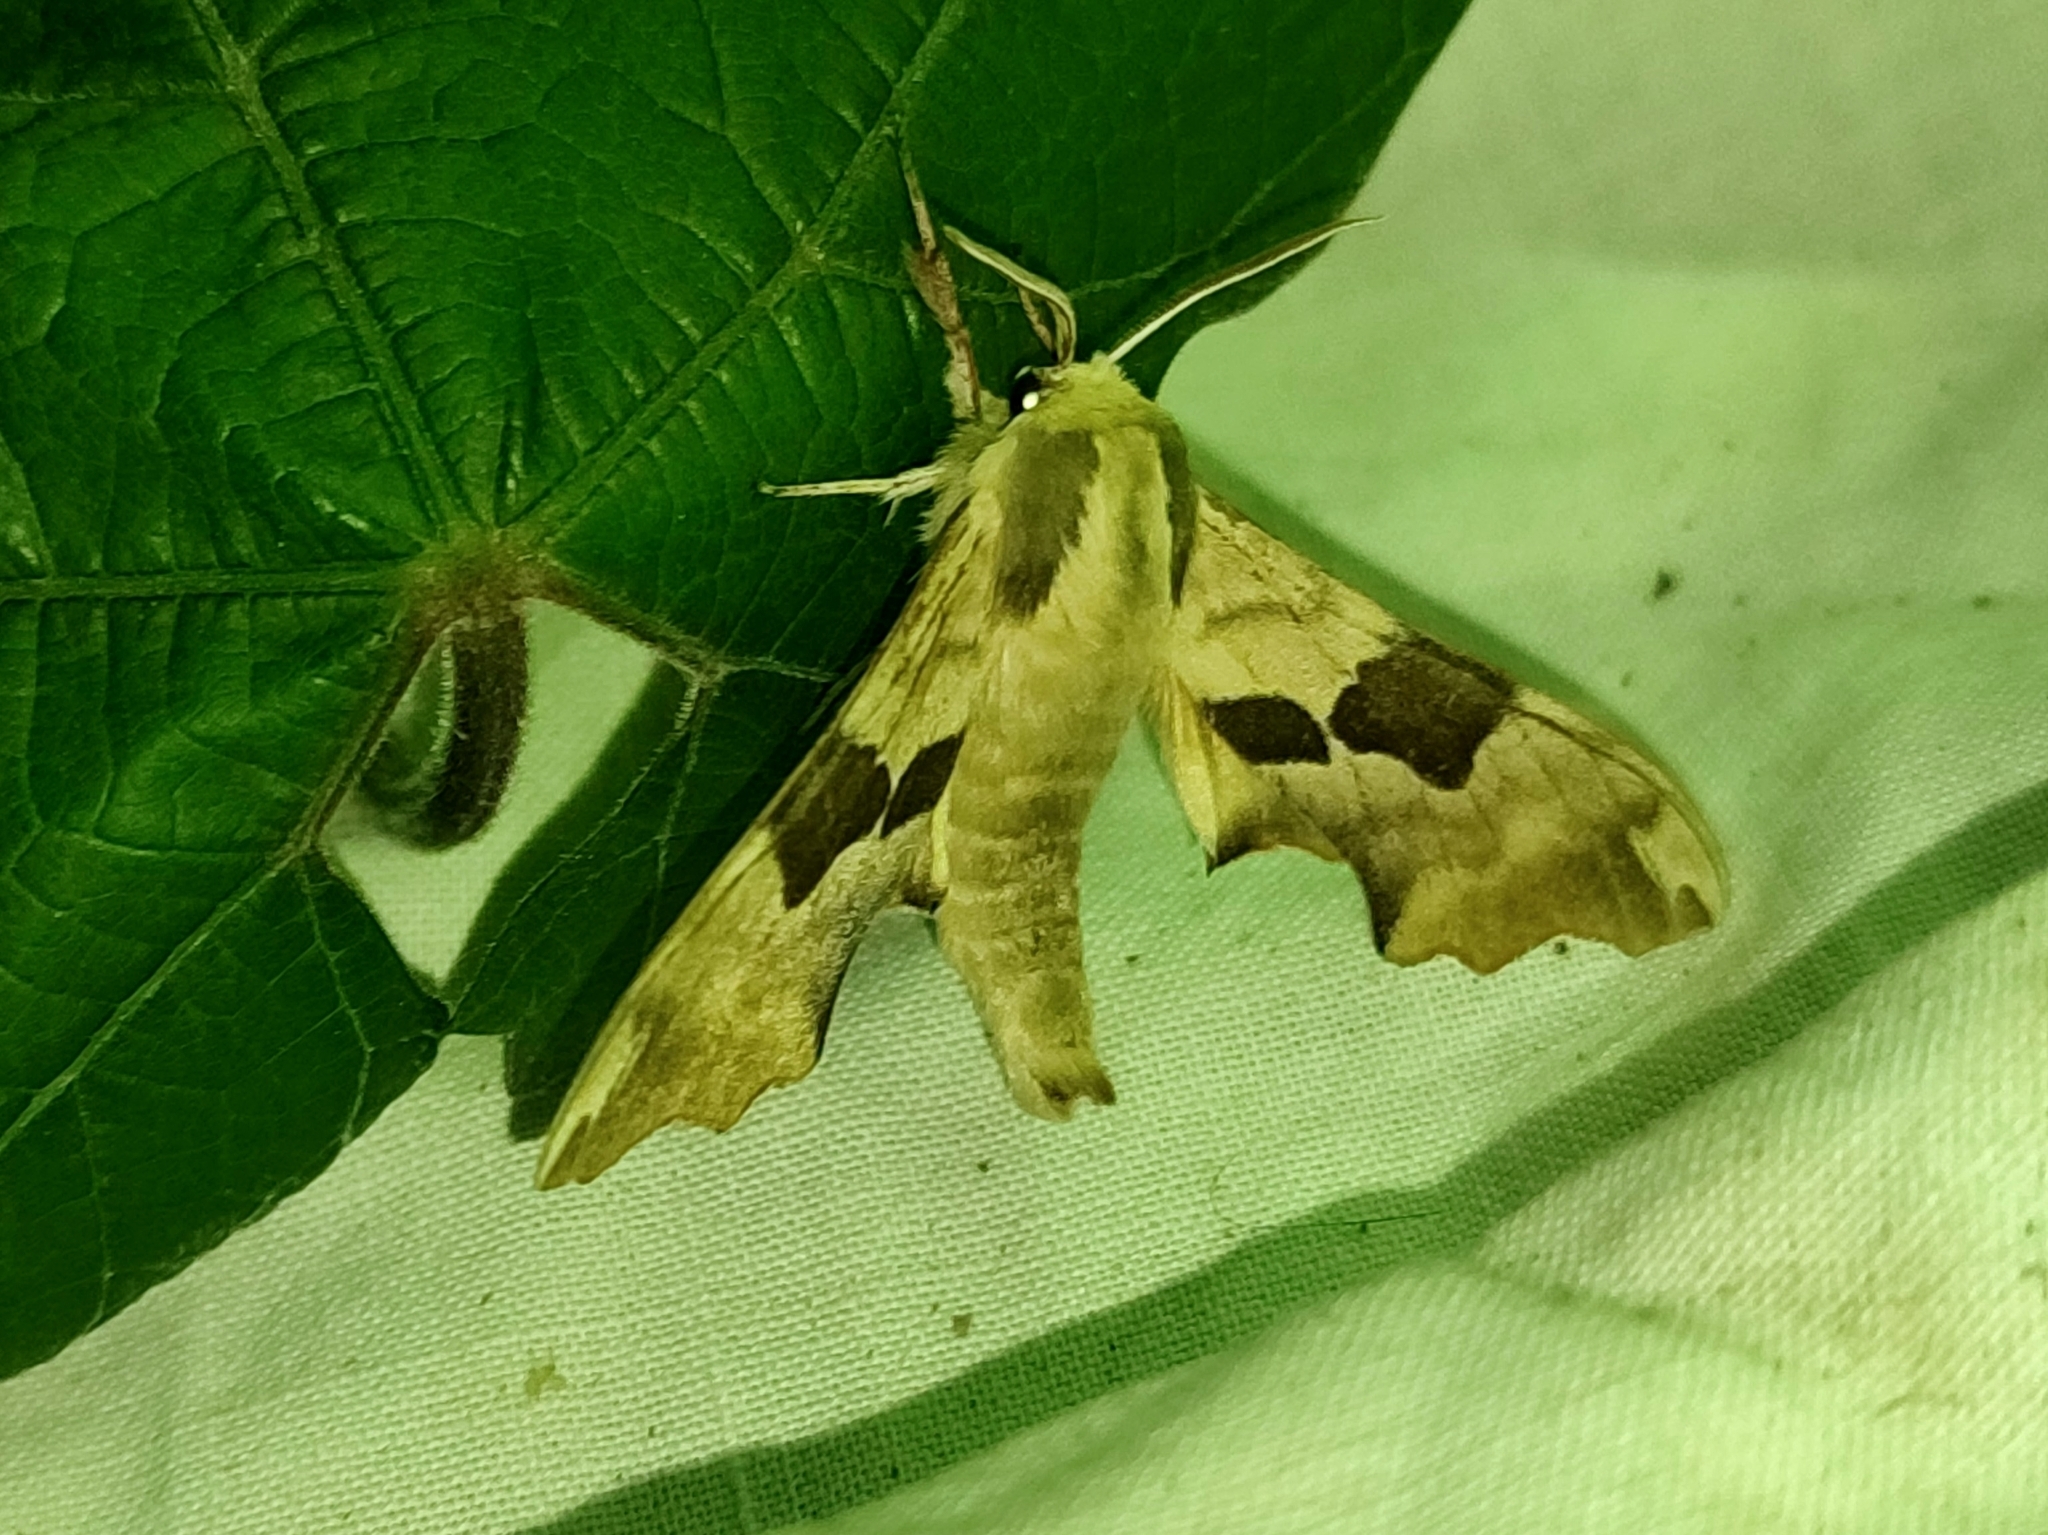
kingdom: Animalia
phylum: Arthropoda
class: Insecta
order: Lepidoptera
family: Sphingidae
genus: Mimas
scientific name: Mimas tiliae
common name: Lime hawk-moth
